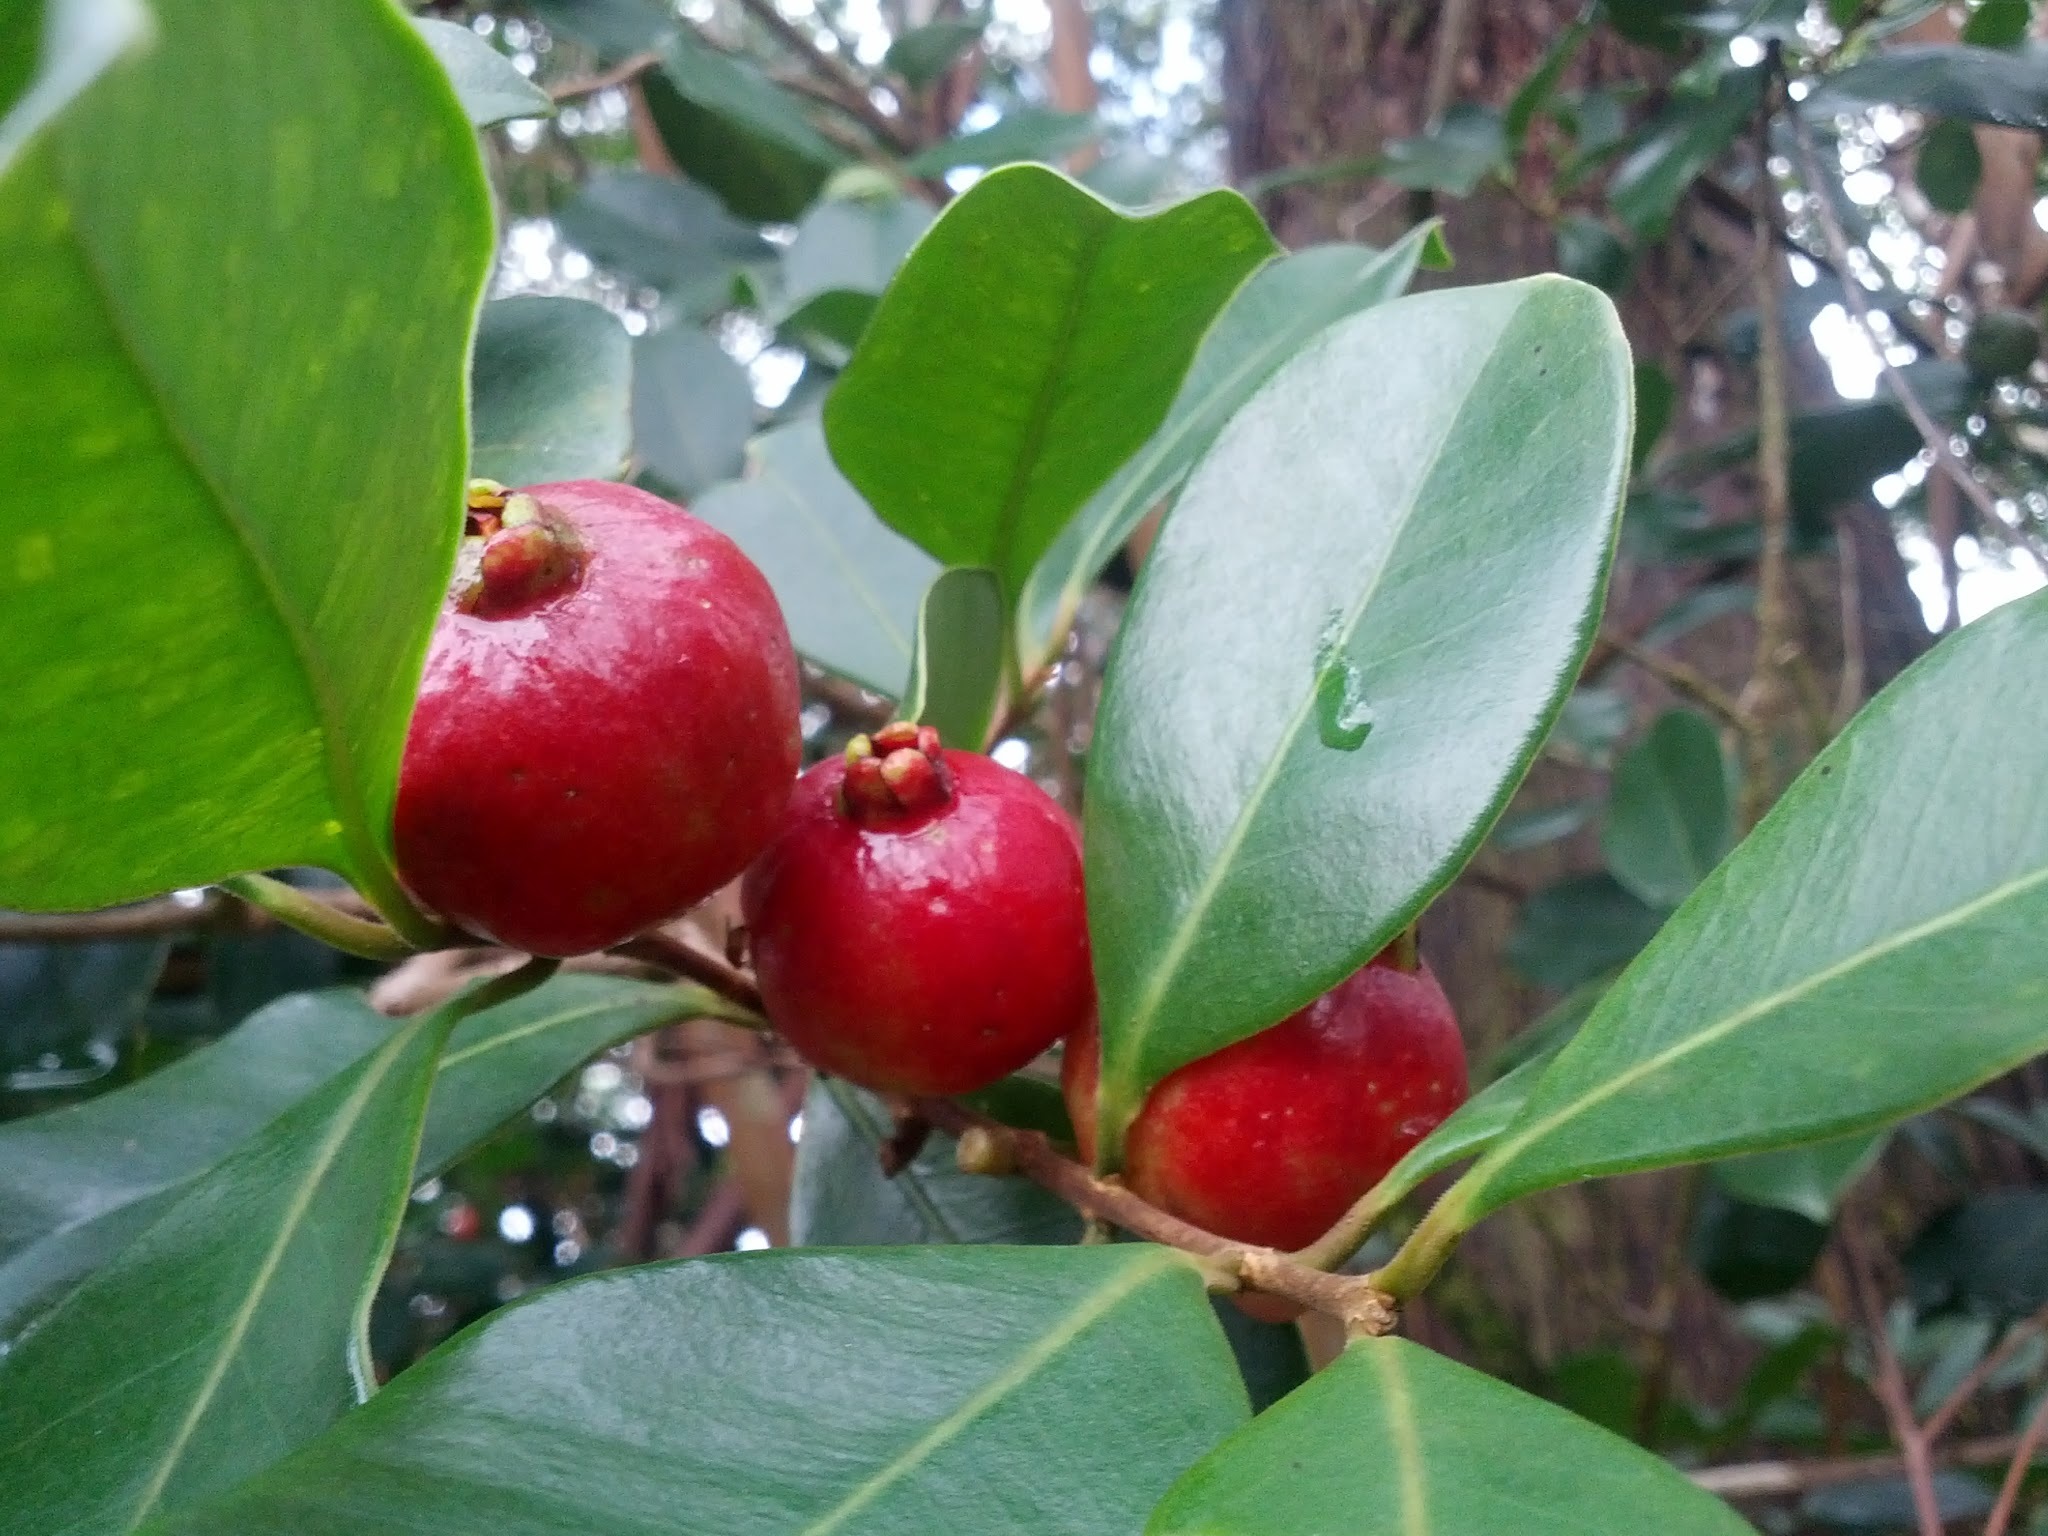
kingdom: Plantae
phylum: Tracheophyta
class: Magnoliopsida
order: Myrtales
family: Myrtaceae
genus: Psidium
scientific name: Psidium cattleianum
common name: Strawberry guava
